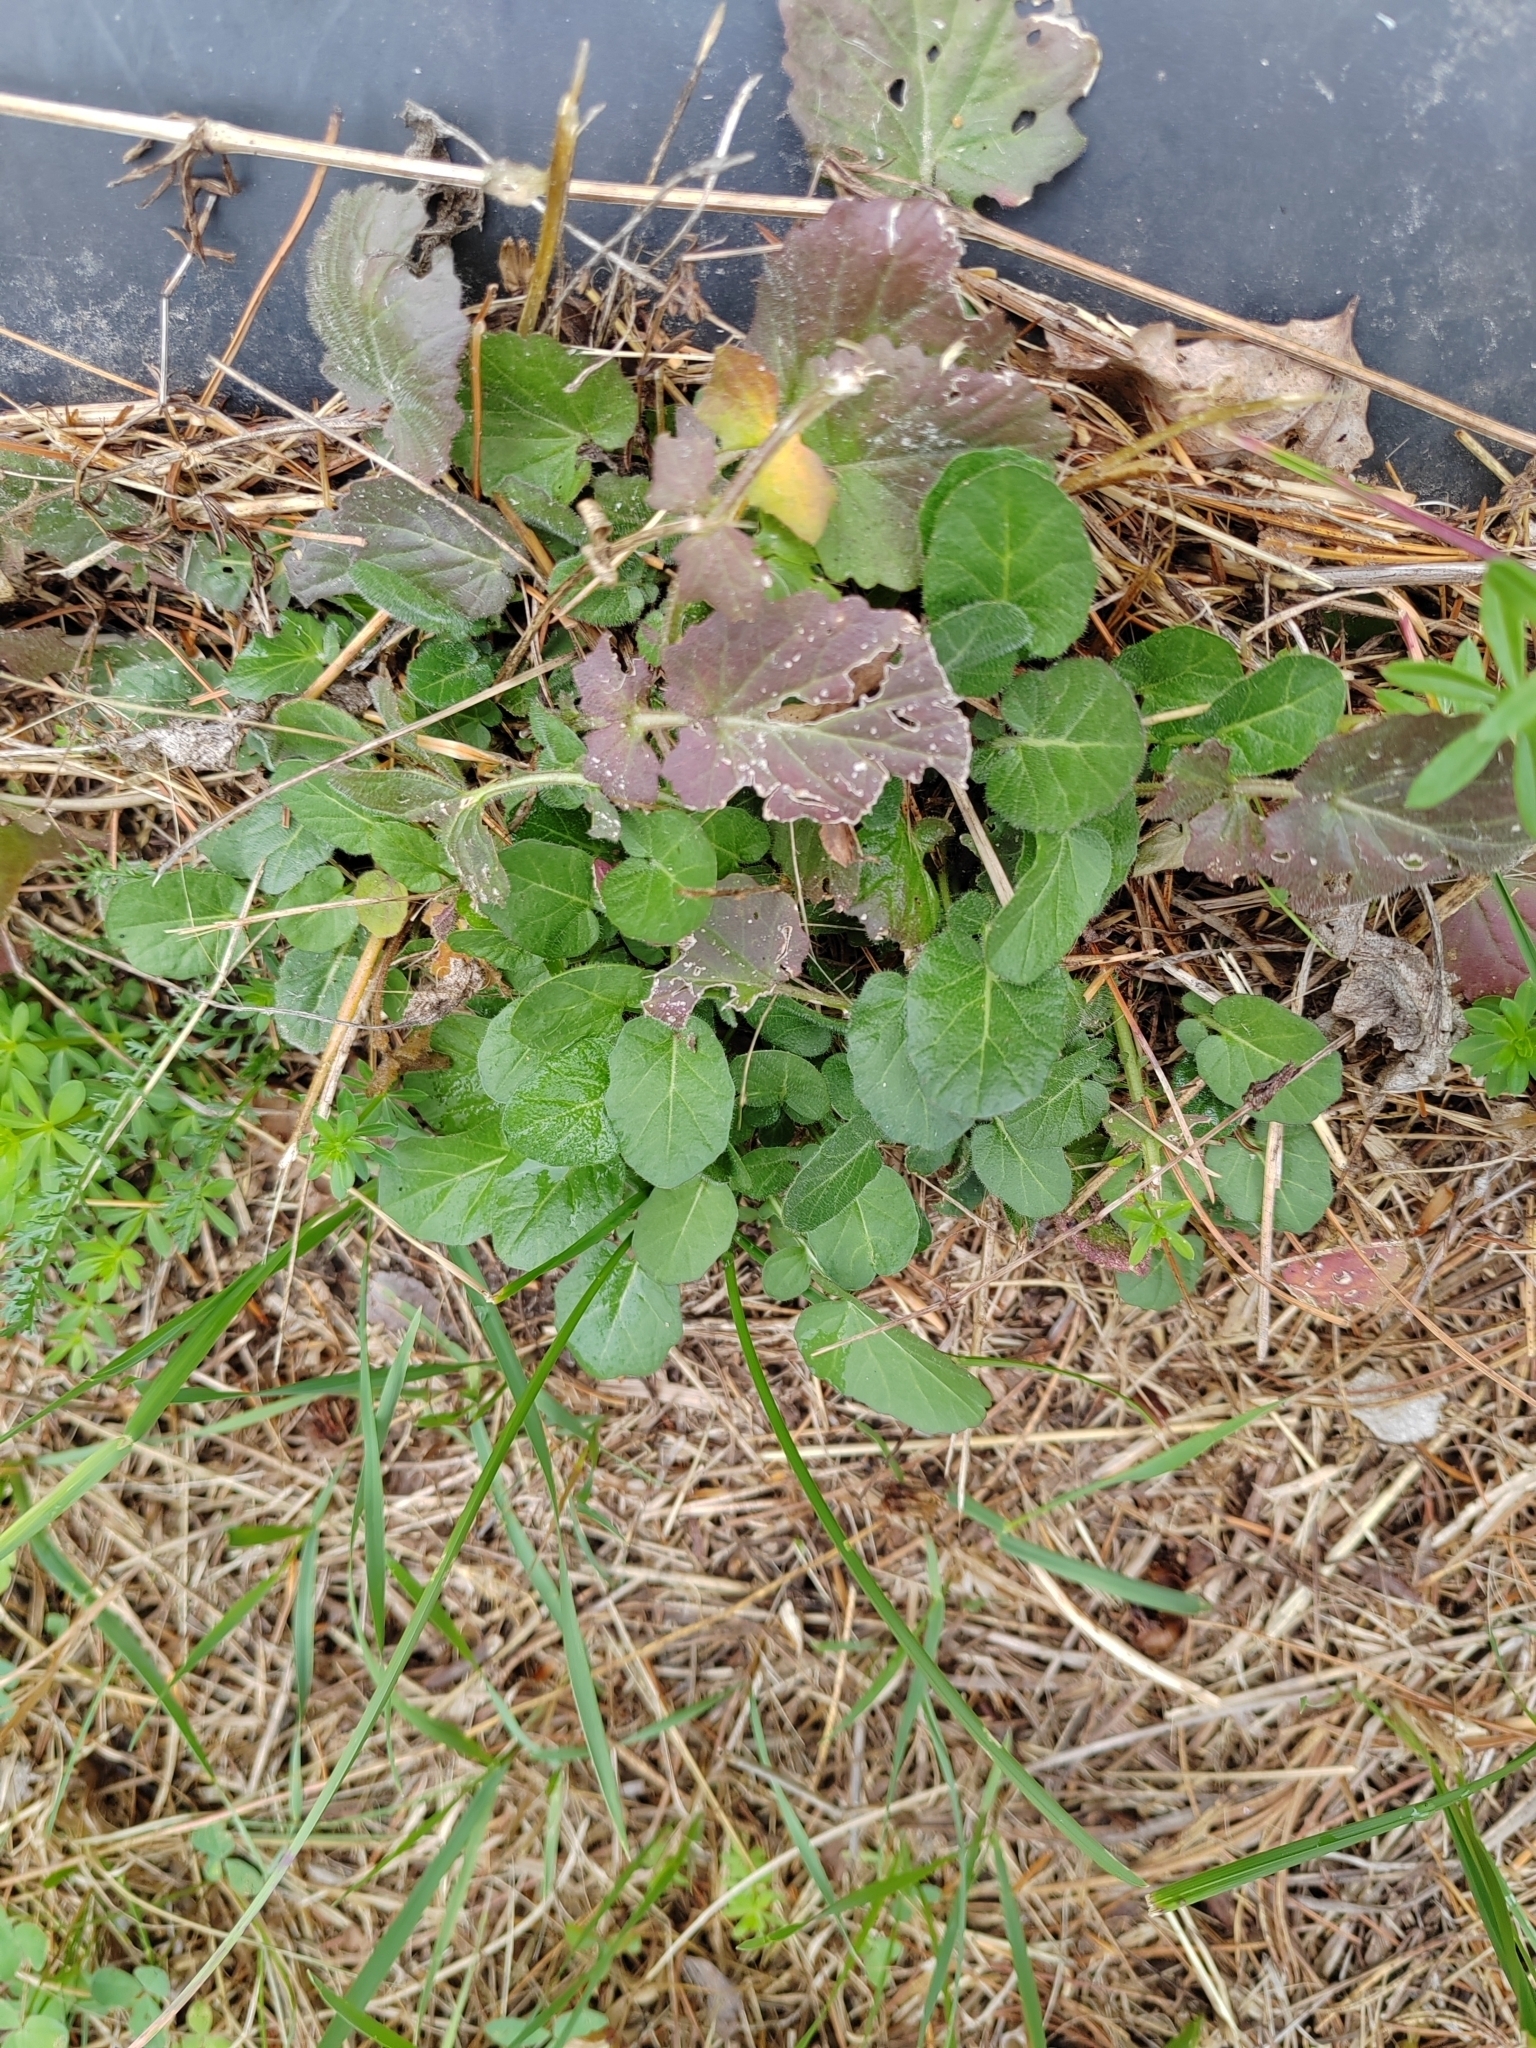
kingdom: Plantae
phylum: Tracheophyta
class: Magnoliopsida
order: Brassicales
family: Brassicaceae
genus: Barbarea
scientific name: Barbarea vulgaris
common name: Cressy-greens
